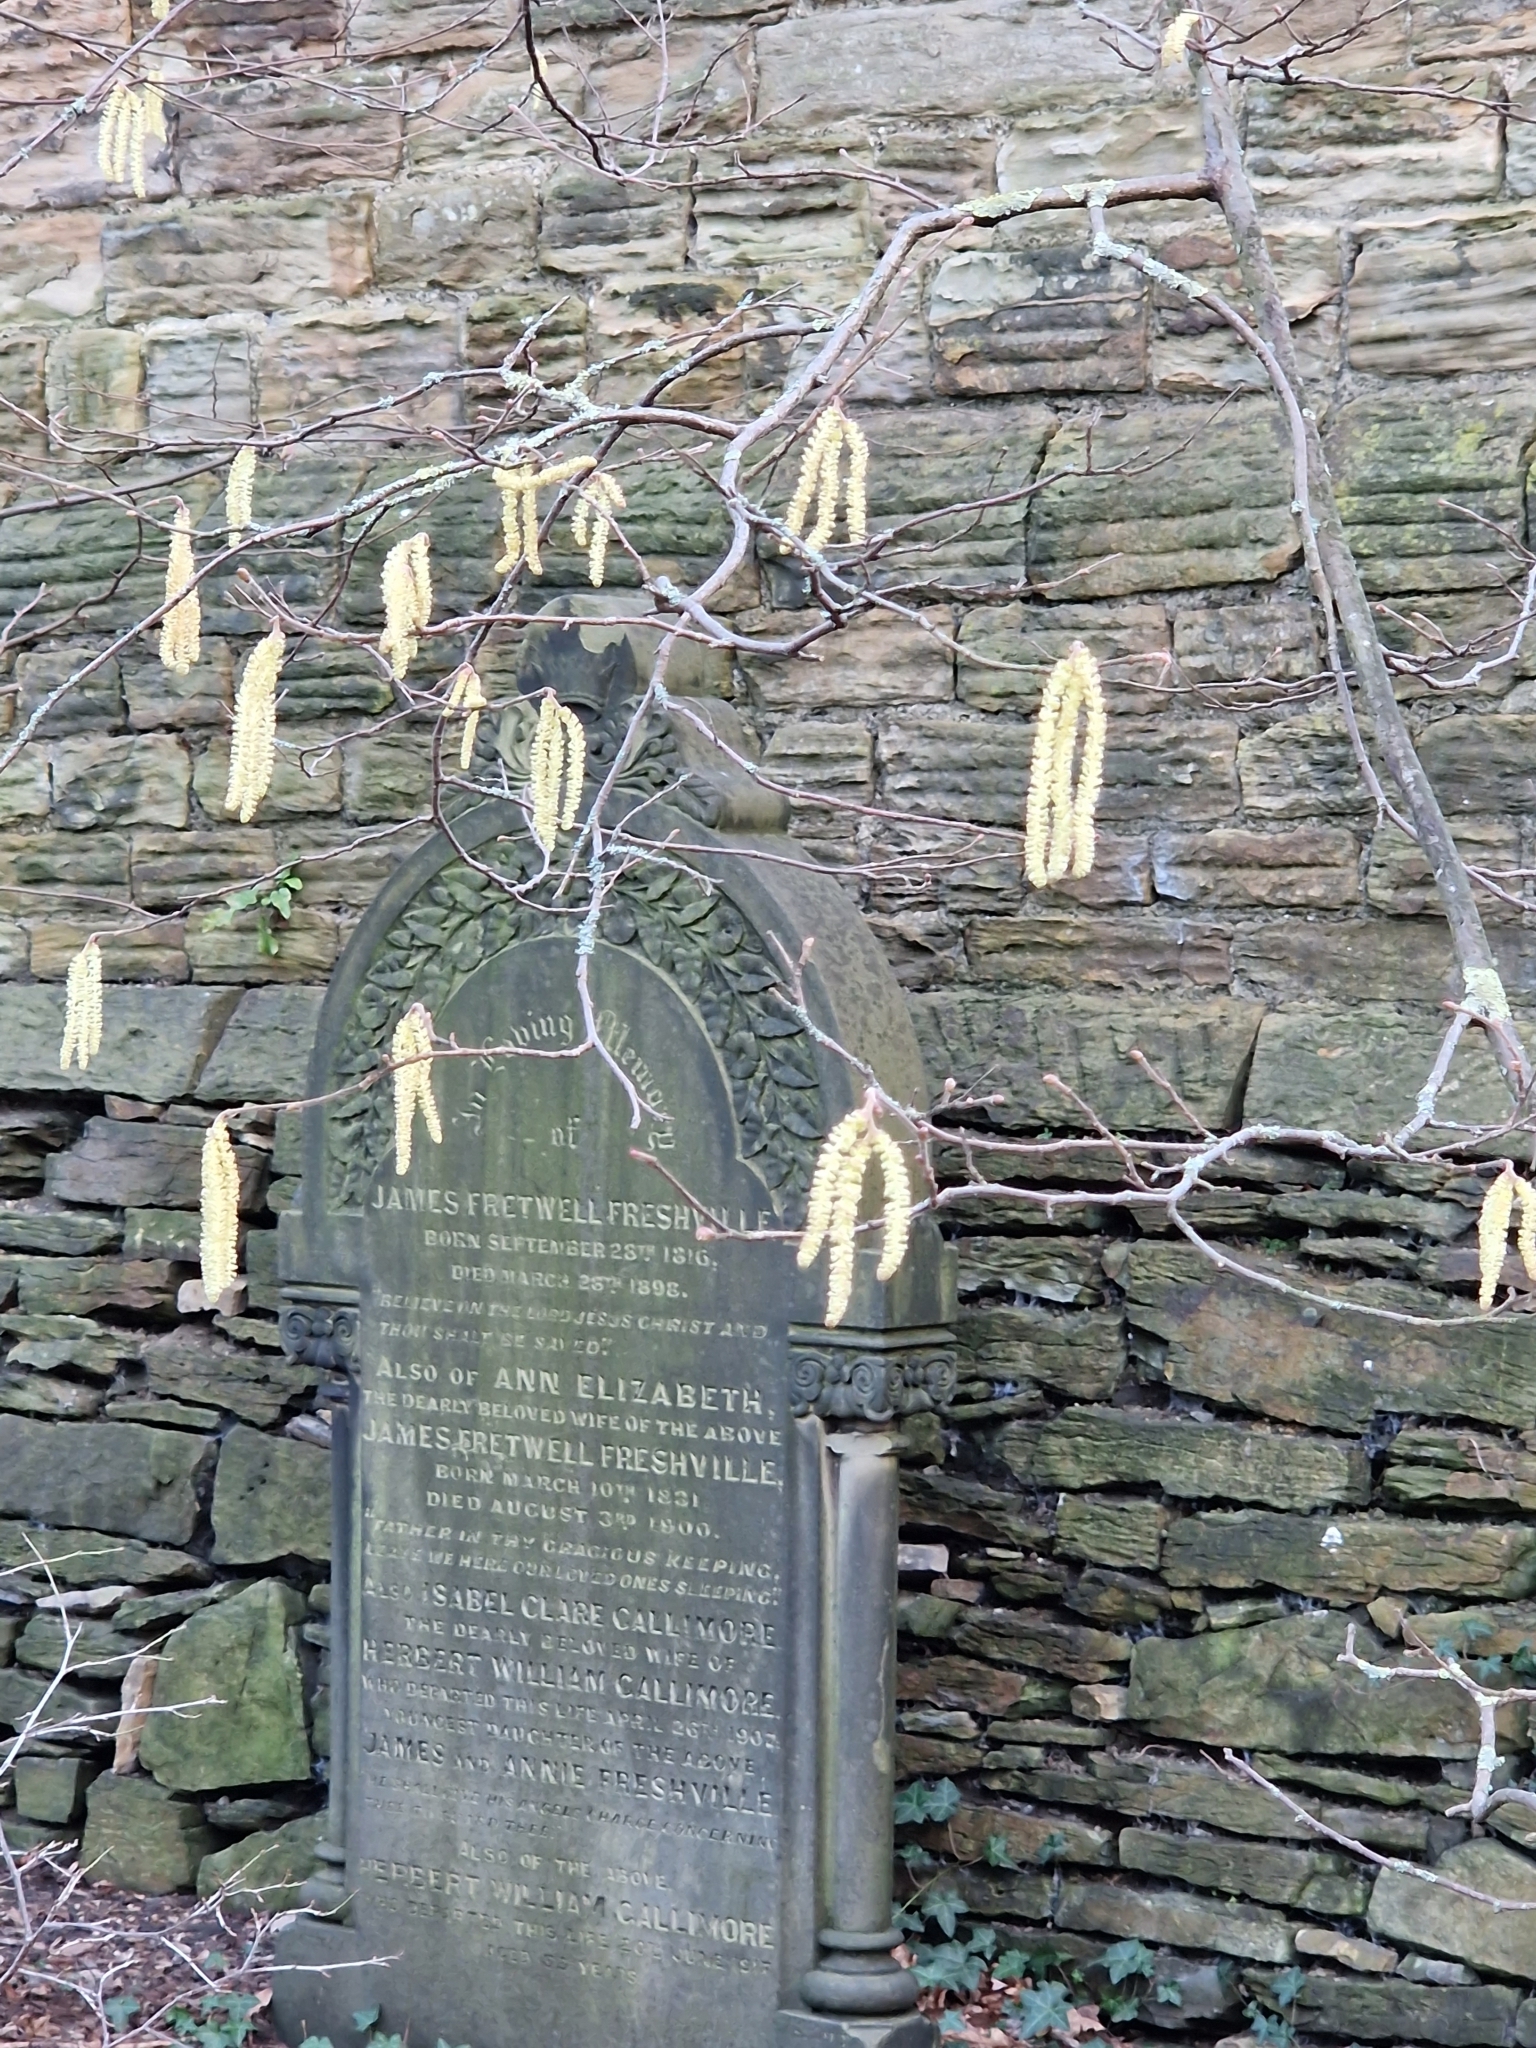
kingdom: Plantae
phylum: Tracheophyta
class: Magnoliopsida
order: Fagales
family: Betulaceae
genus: Corylus
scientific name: Corylus avellana
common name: European hazel
